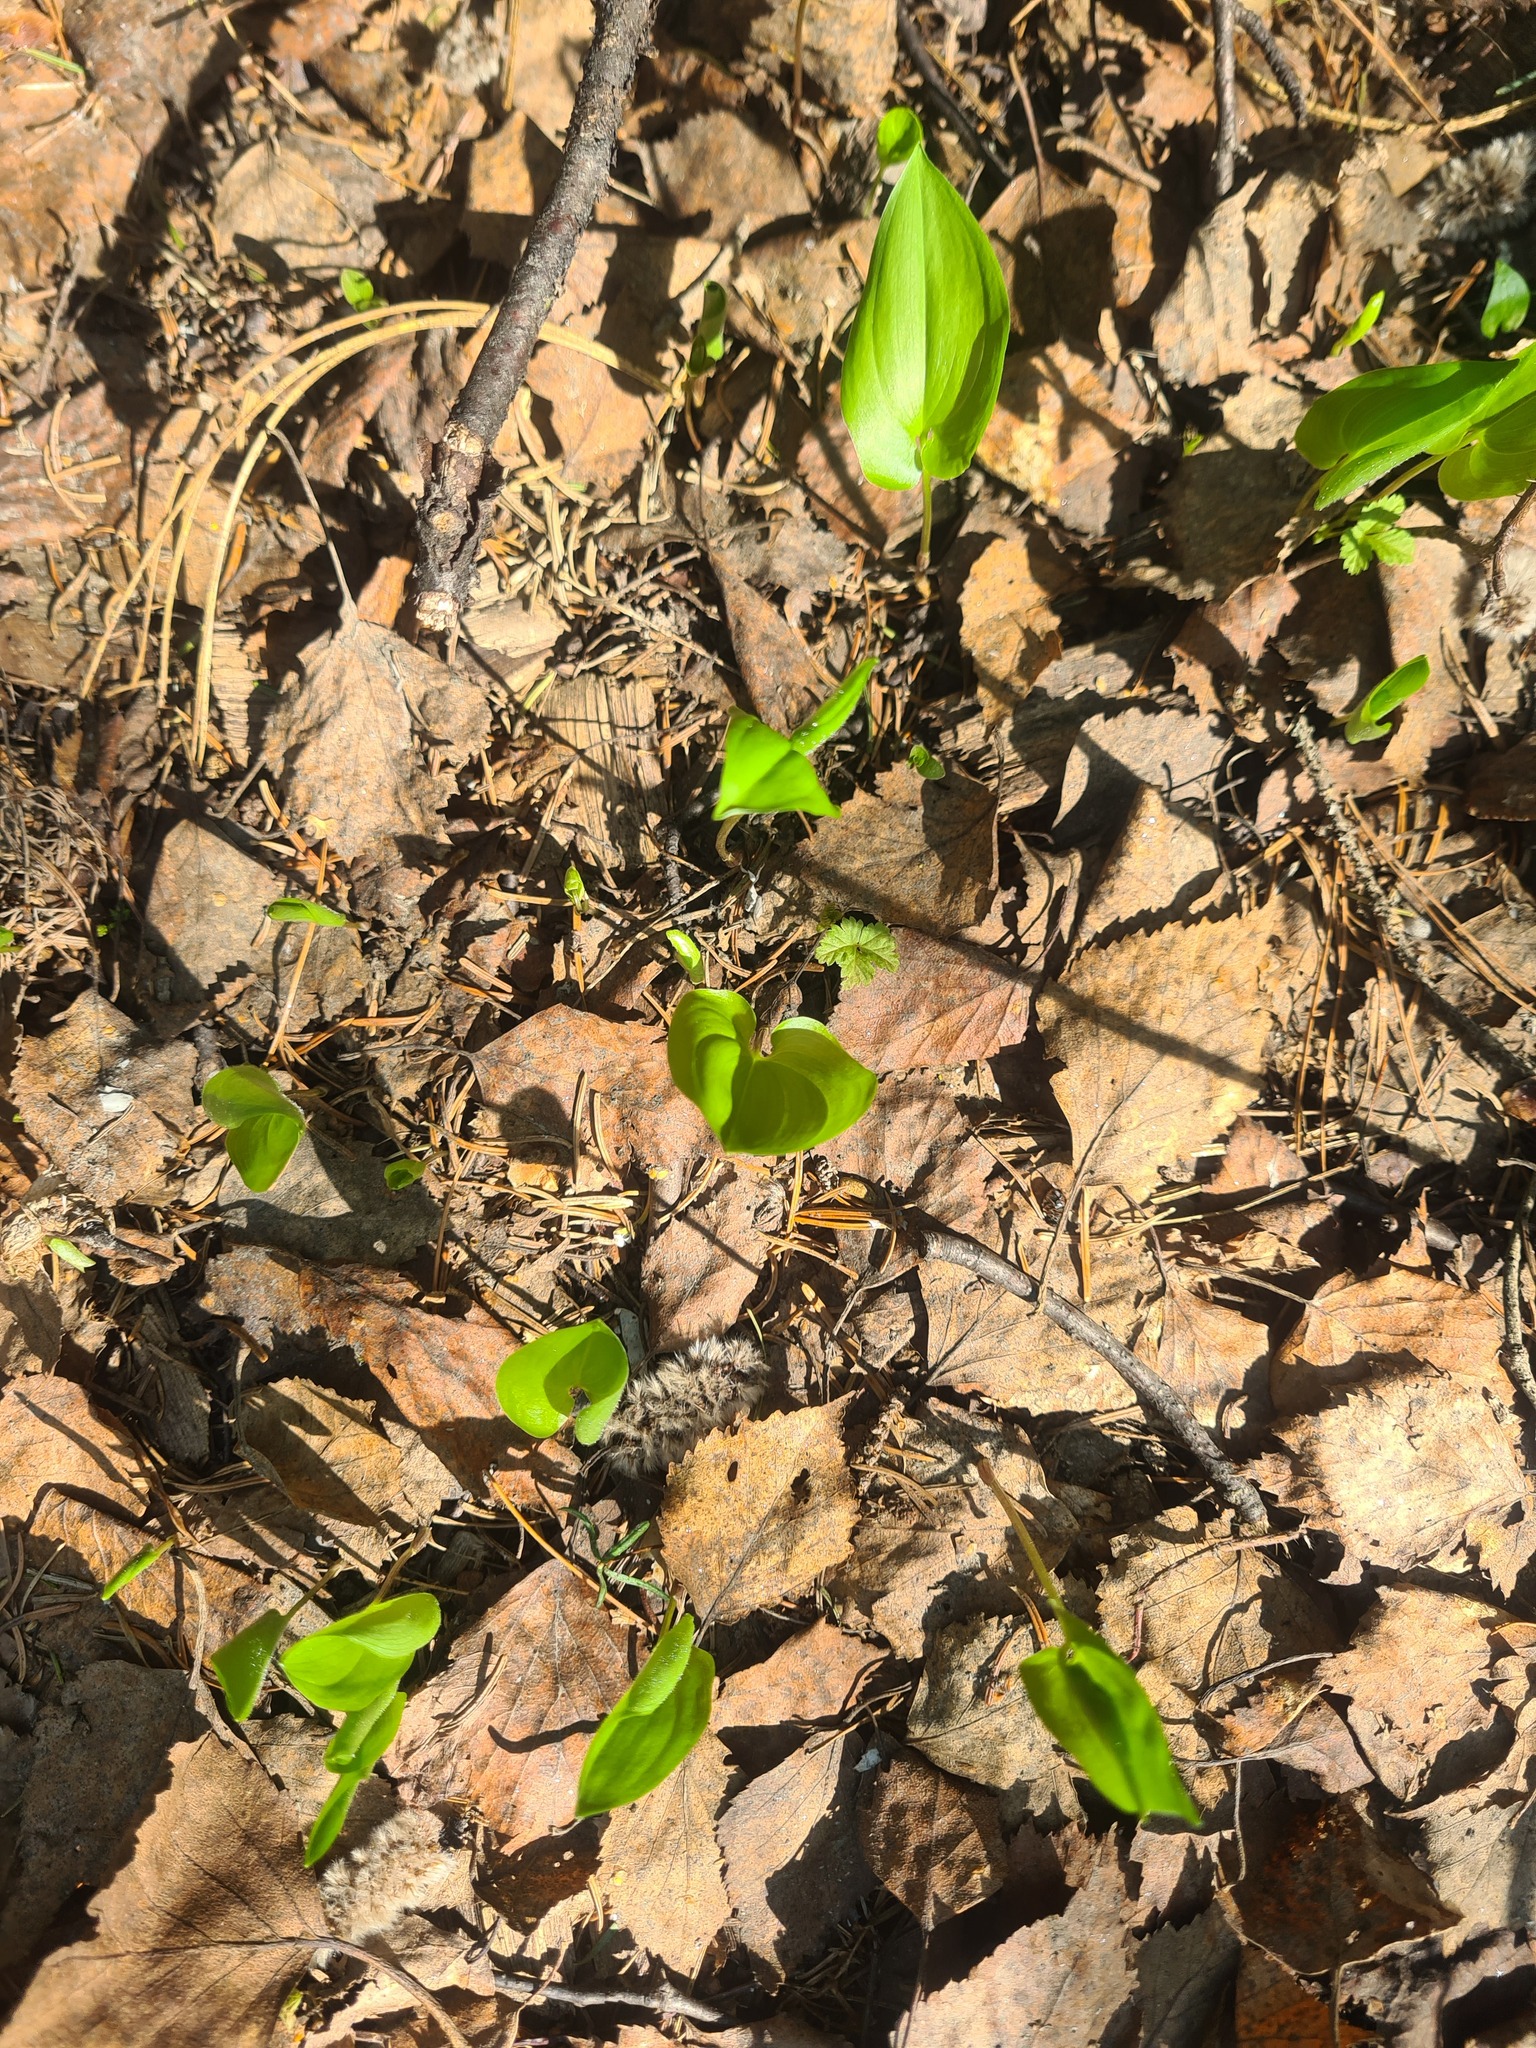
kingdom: Plantae
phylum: Tracheophyta
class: Liliopsida
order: Asparagales
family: Asparagaceae
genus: Maianthemum
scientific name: Maianthemum bifolium
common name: May lily
